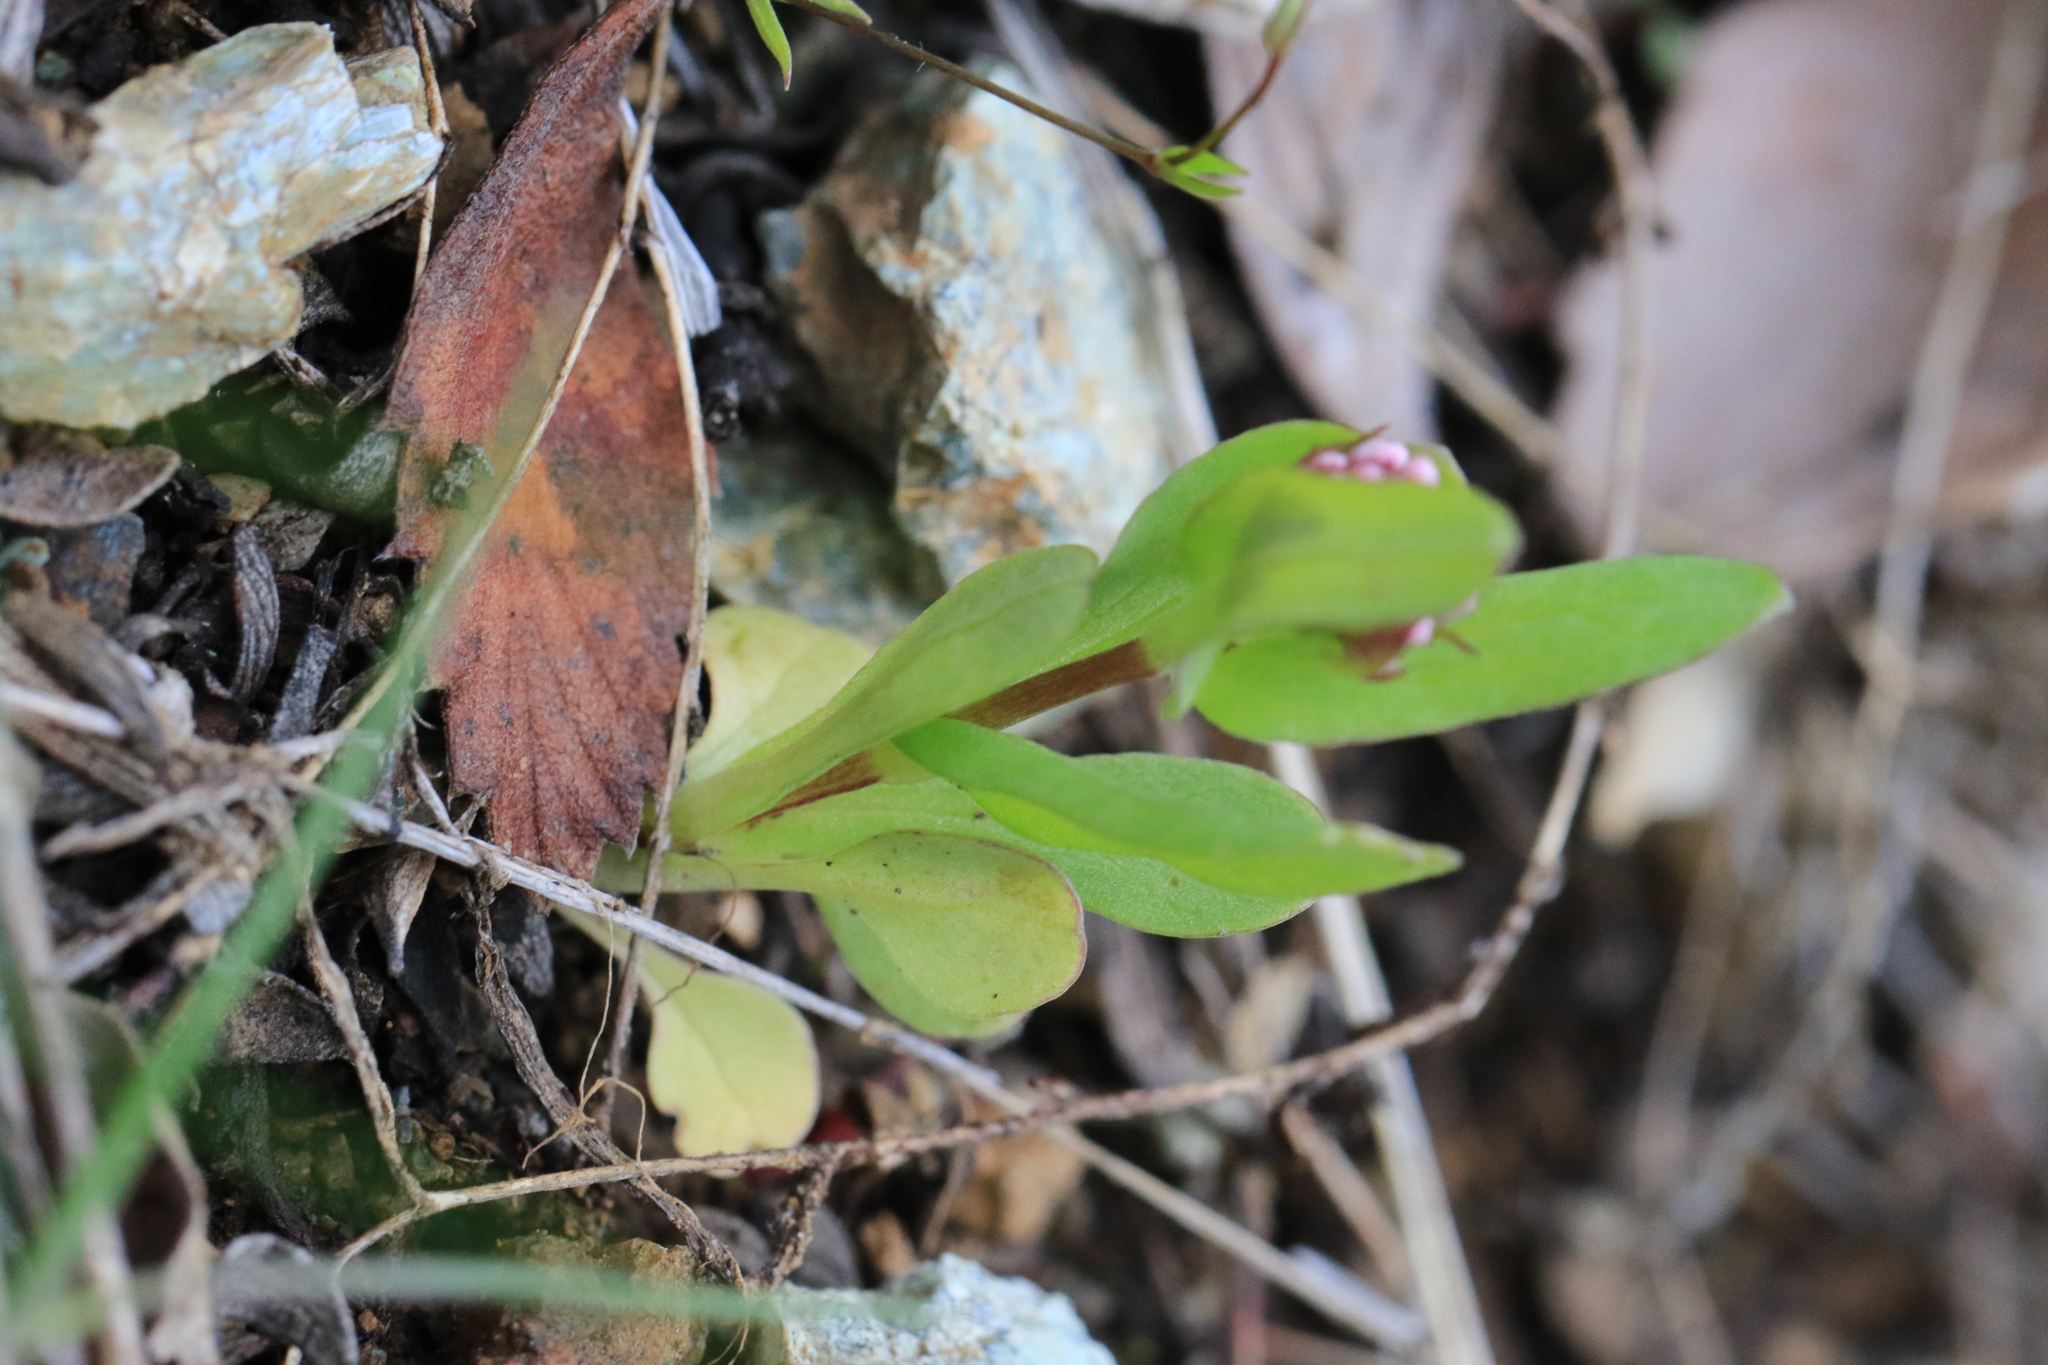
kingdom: Plantae
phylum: Tracheophyta
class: Magnoliopsida
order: Dipsacales
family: Caprifoliaceae
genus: Plectritis
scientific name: Plectritis congesta
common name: Pink plectritis
